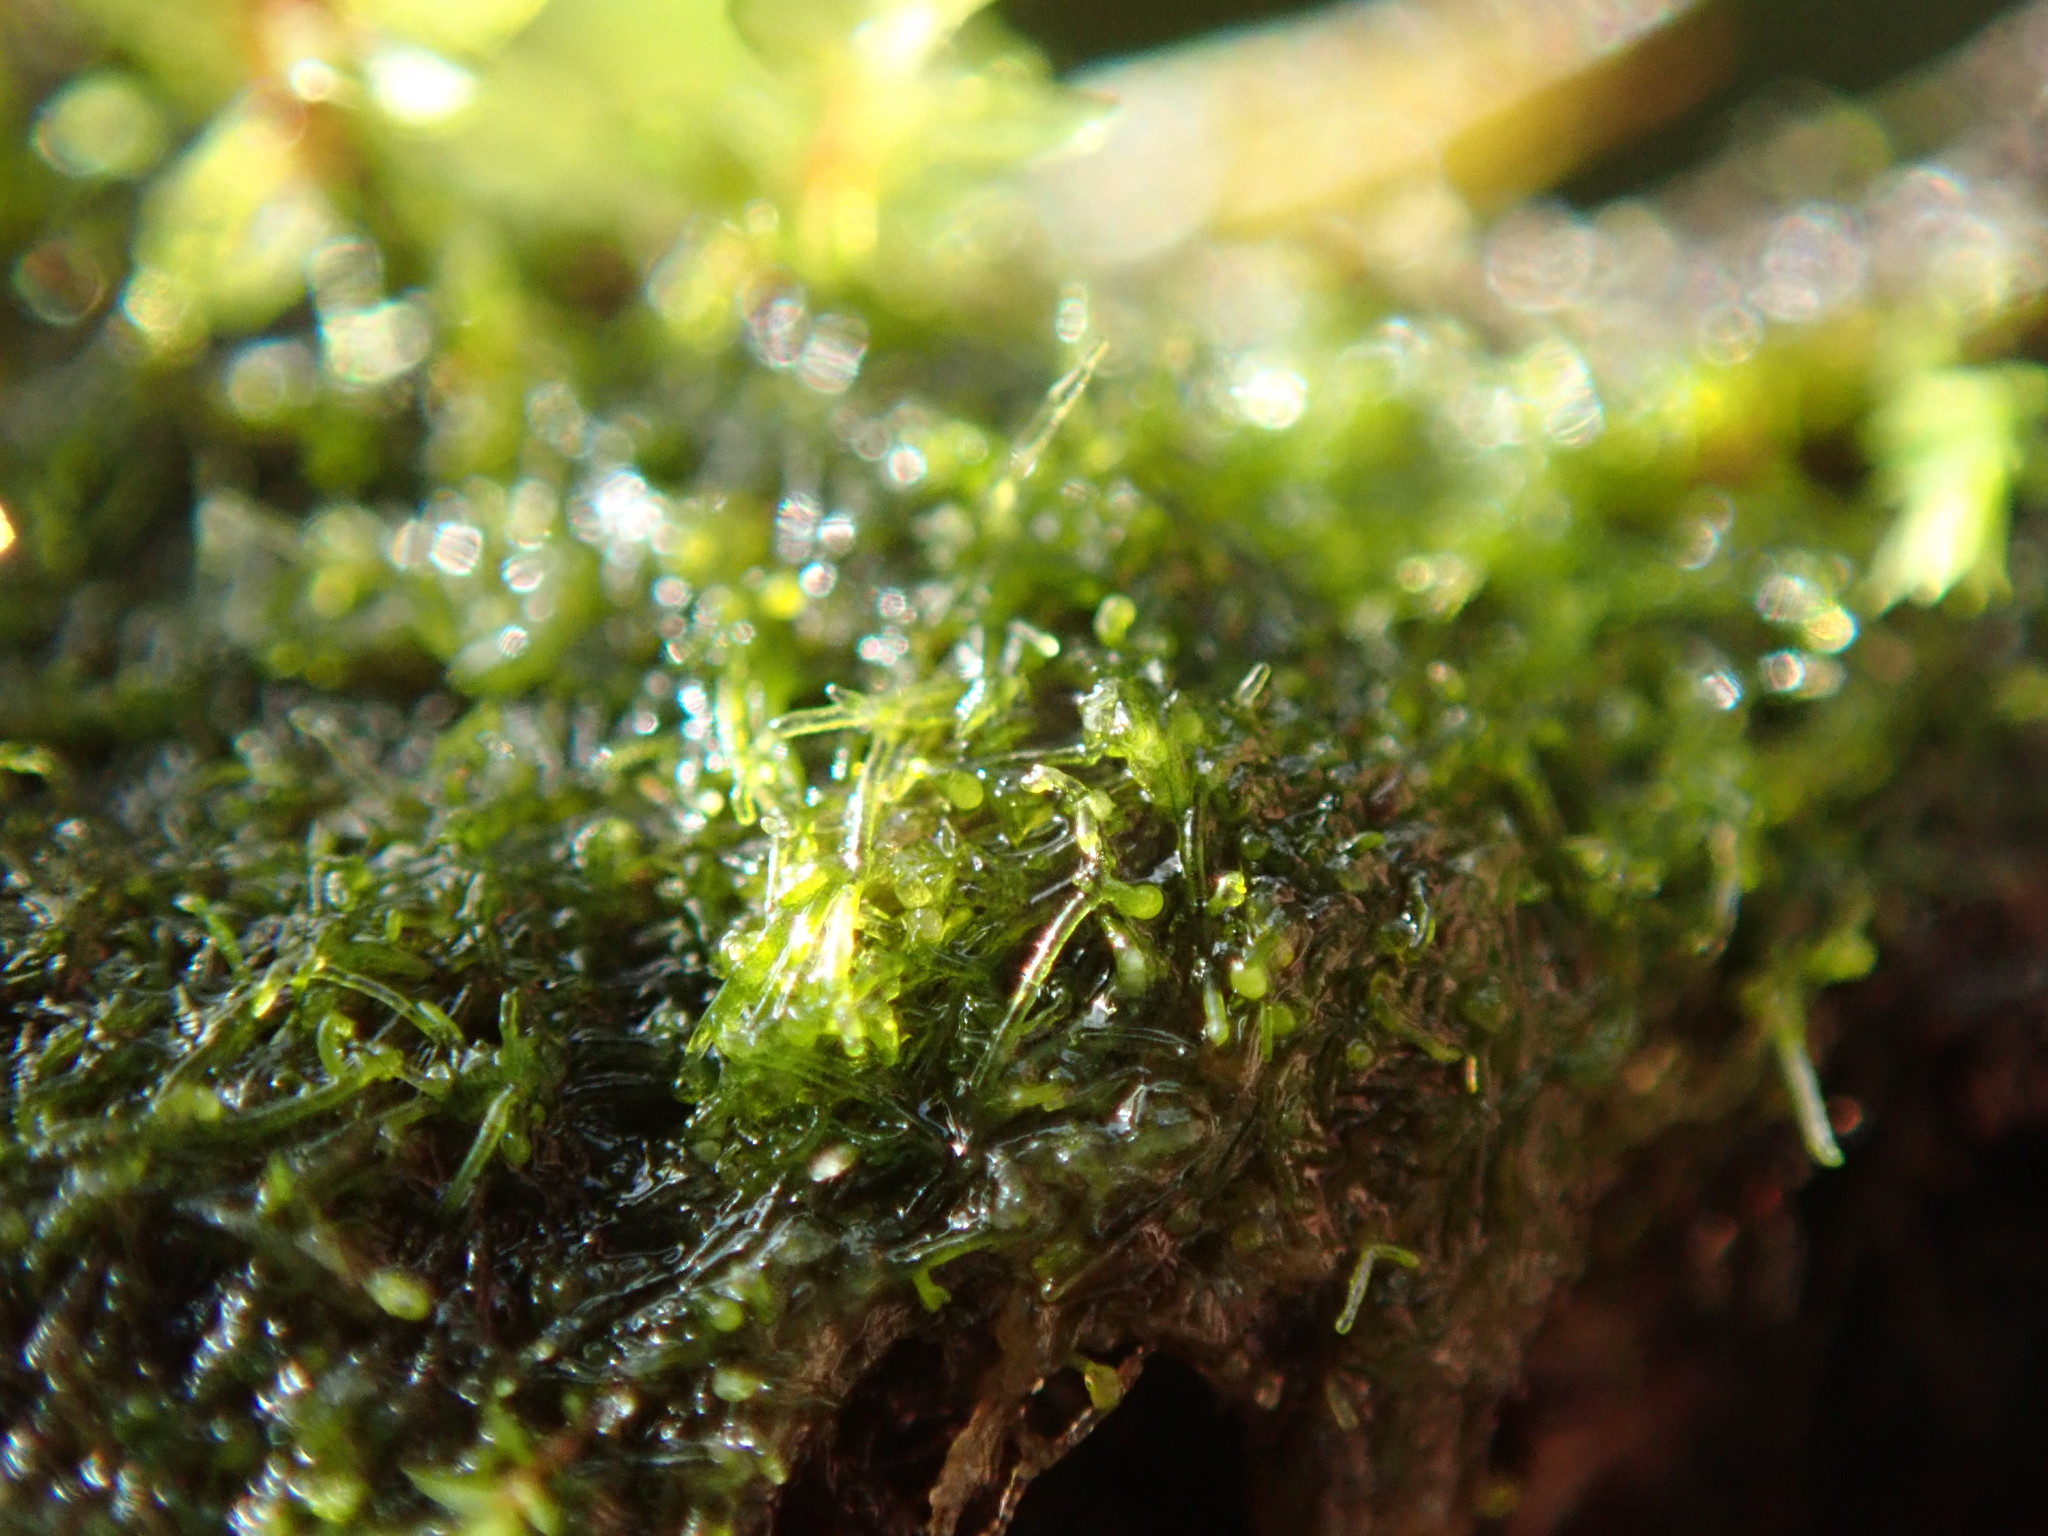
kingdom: Chromista
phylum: Ochrophyta
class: Xanthophyceae
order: Vaucheriales
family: Vaucheriaceae
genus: Vaucheria
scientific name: Vaucheria
